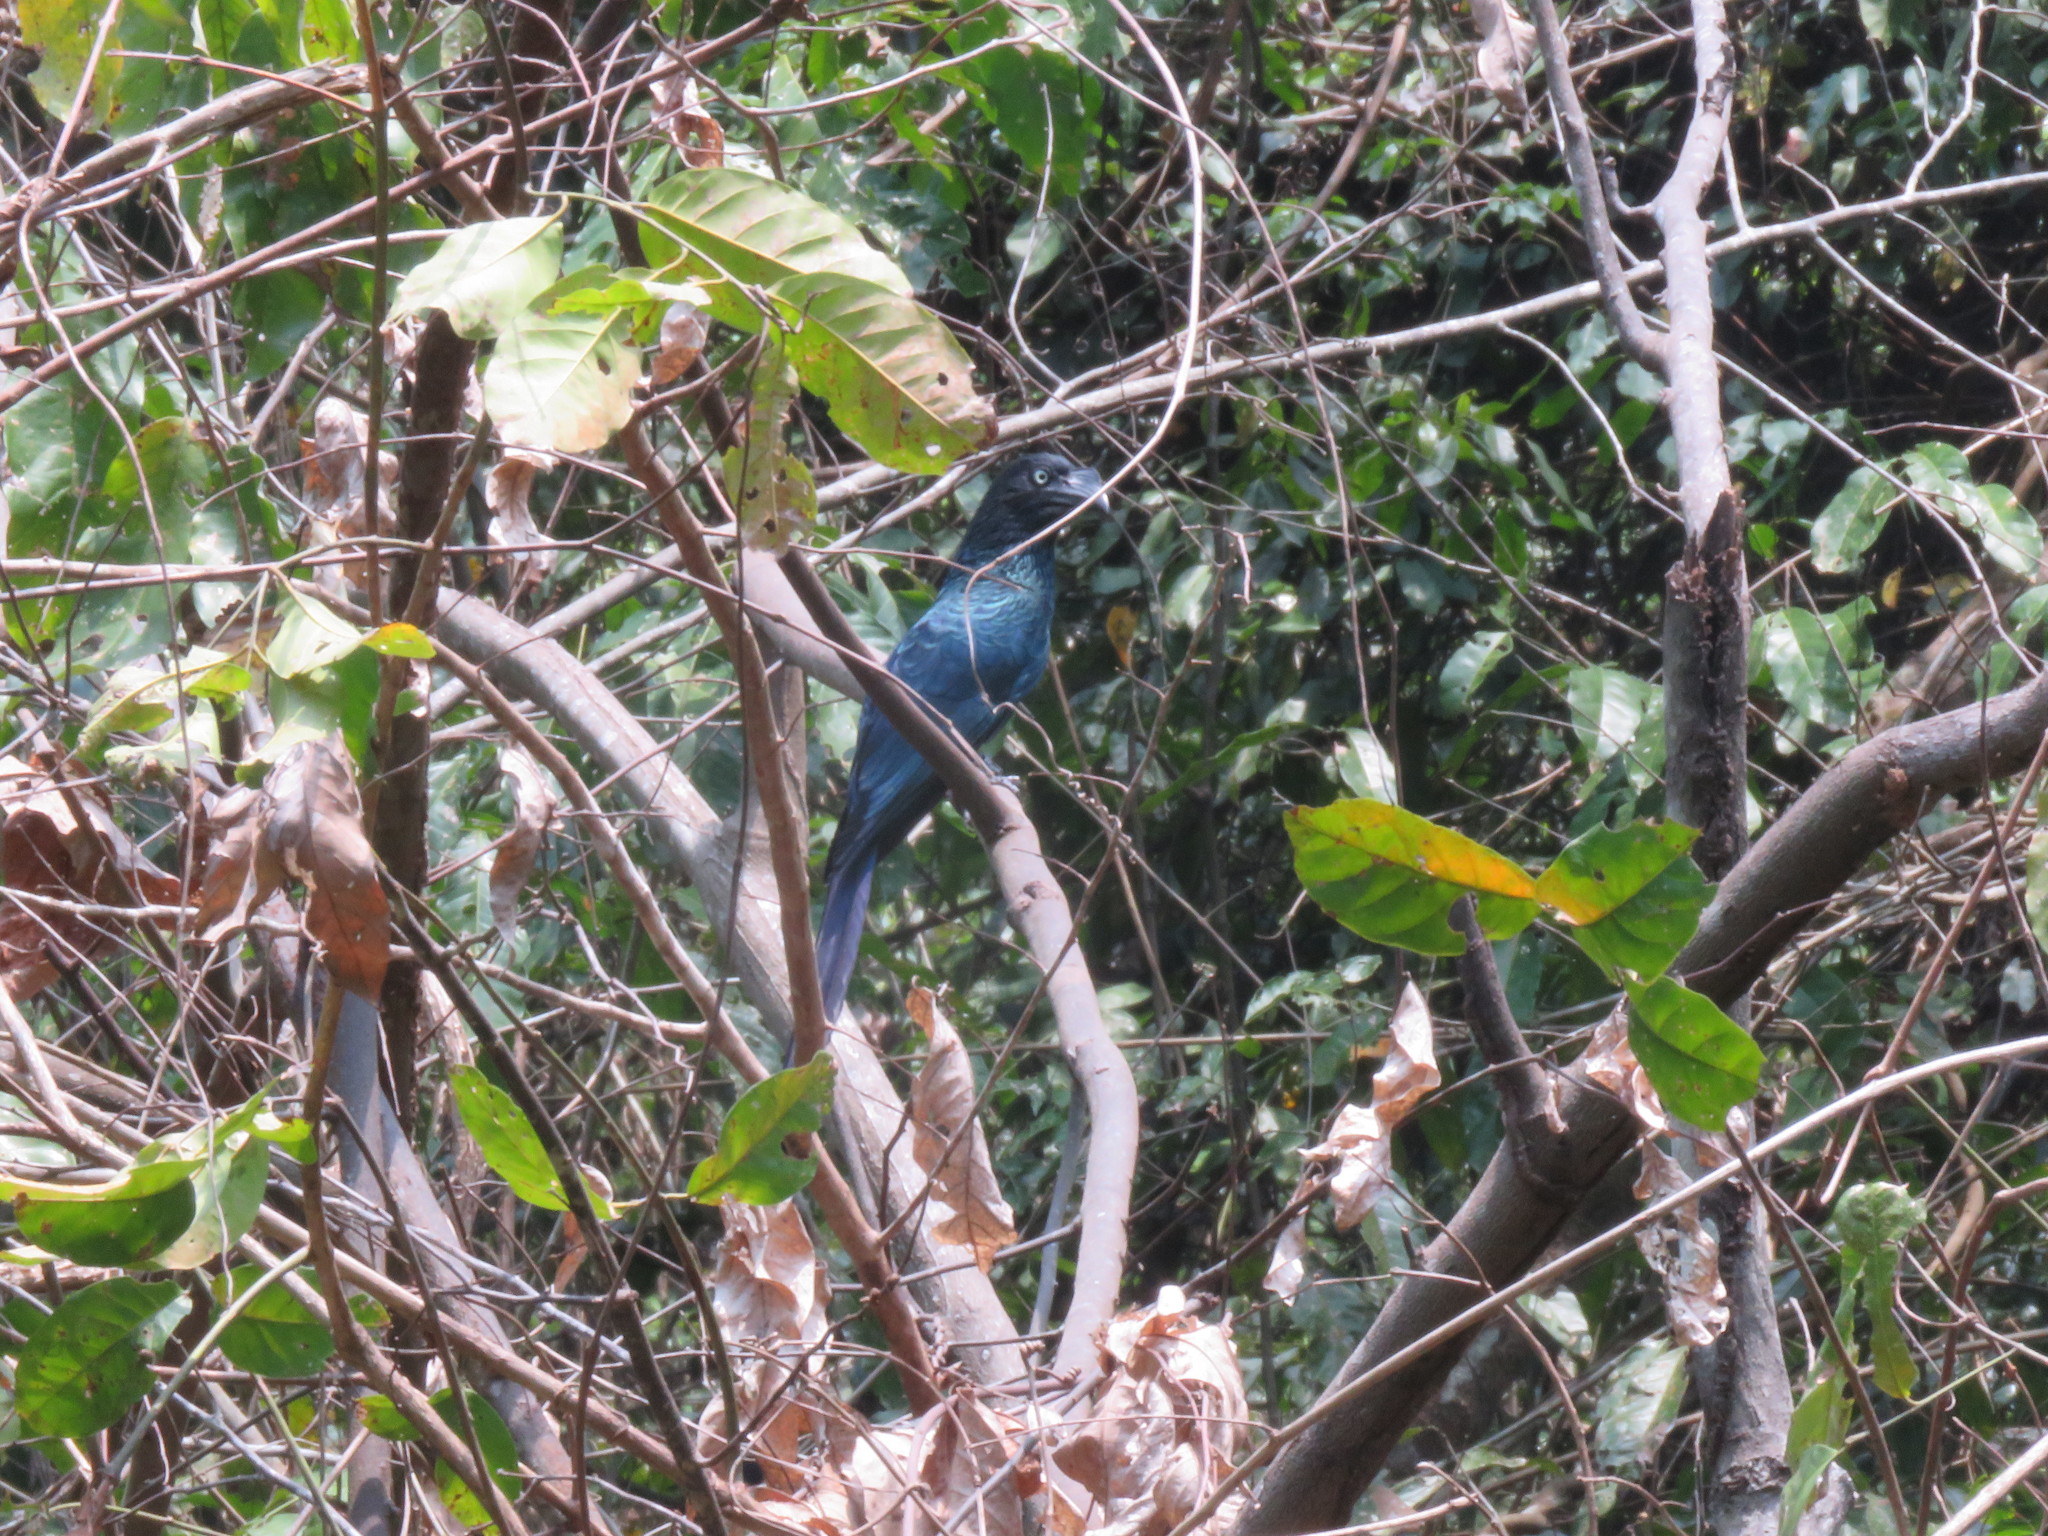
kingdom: Animalia
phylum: Chordata
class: Aves
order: Cuculiformes
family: Cuculidae
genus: Crotophaga
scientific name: Crotophaga major
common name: Greater ani
